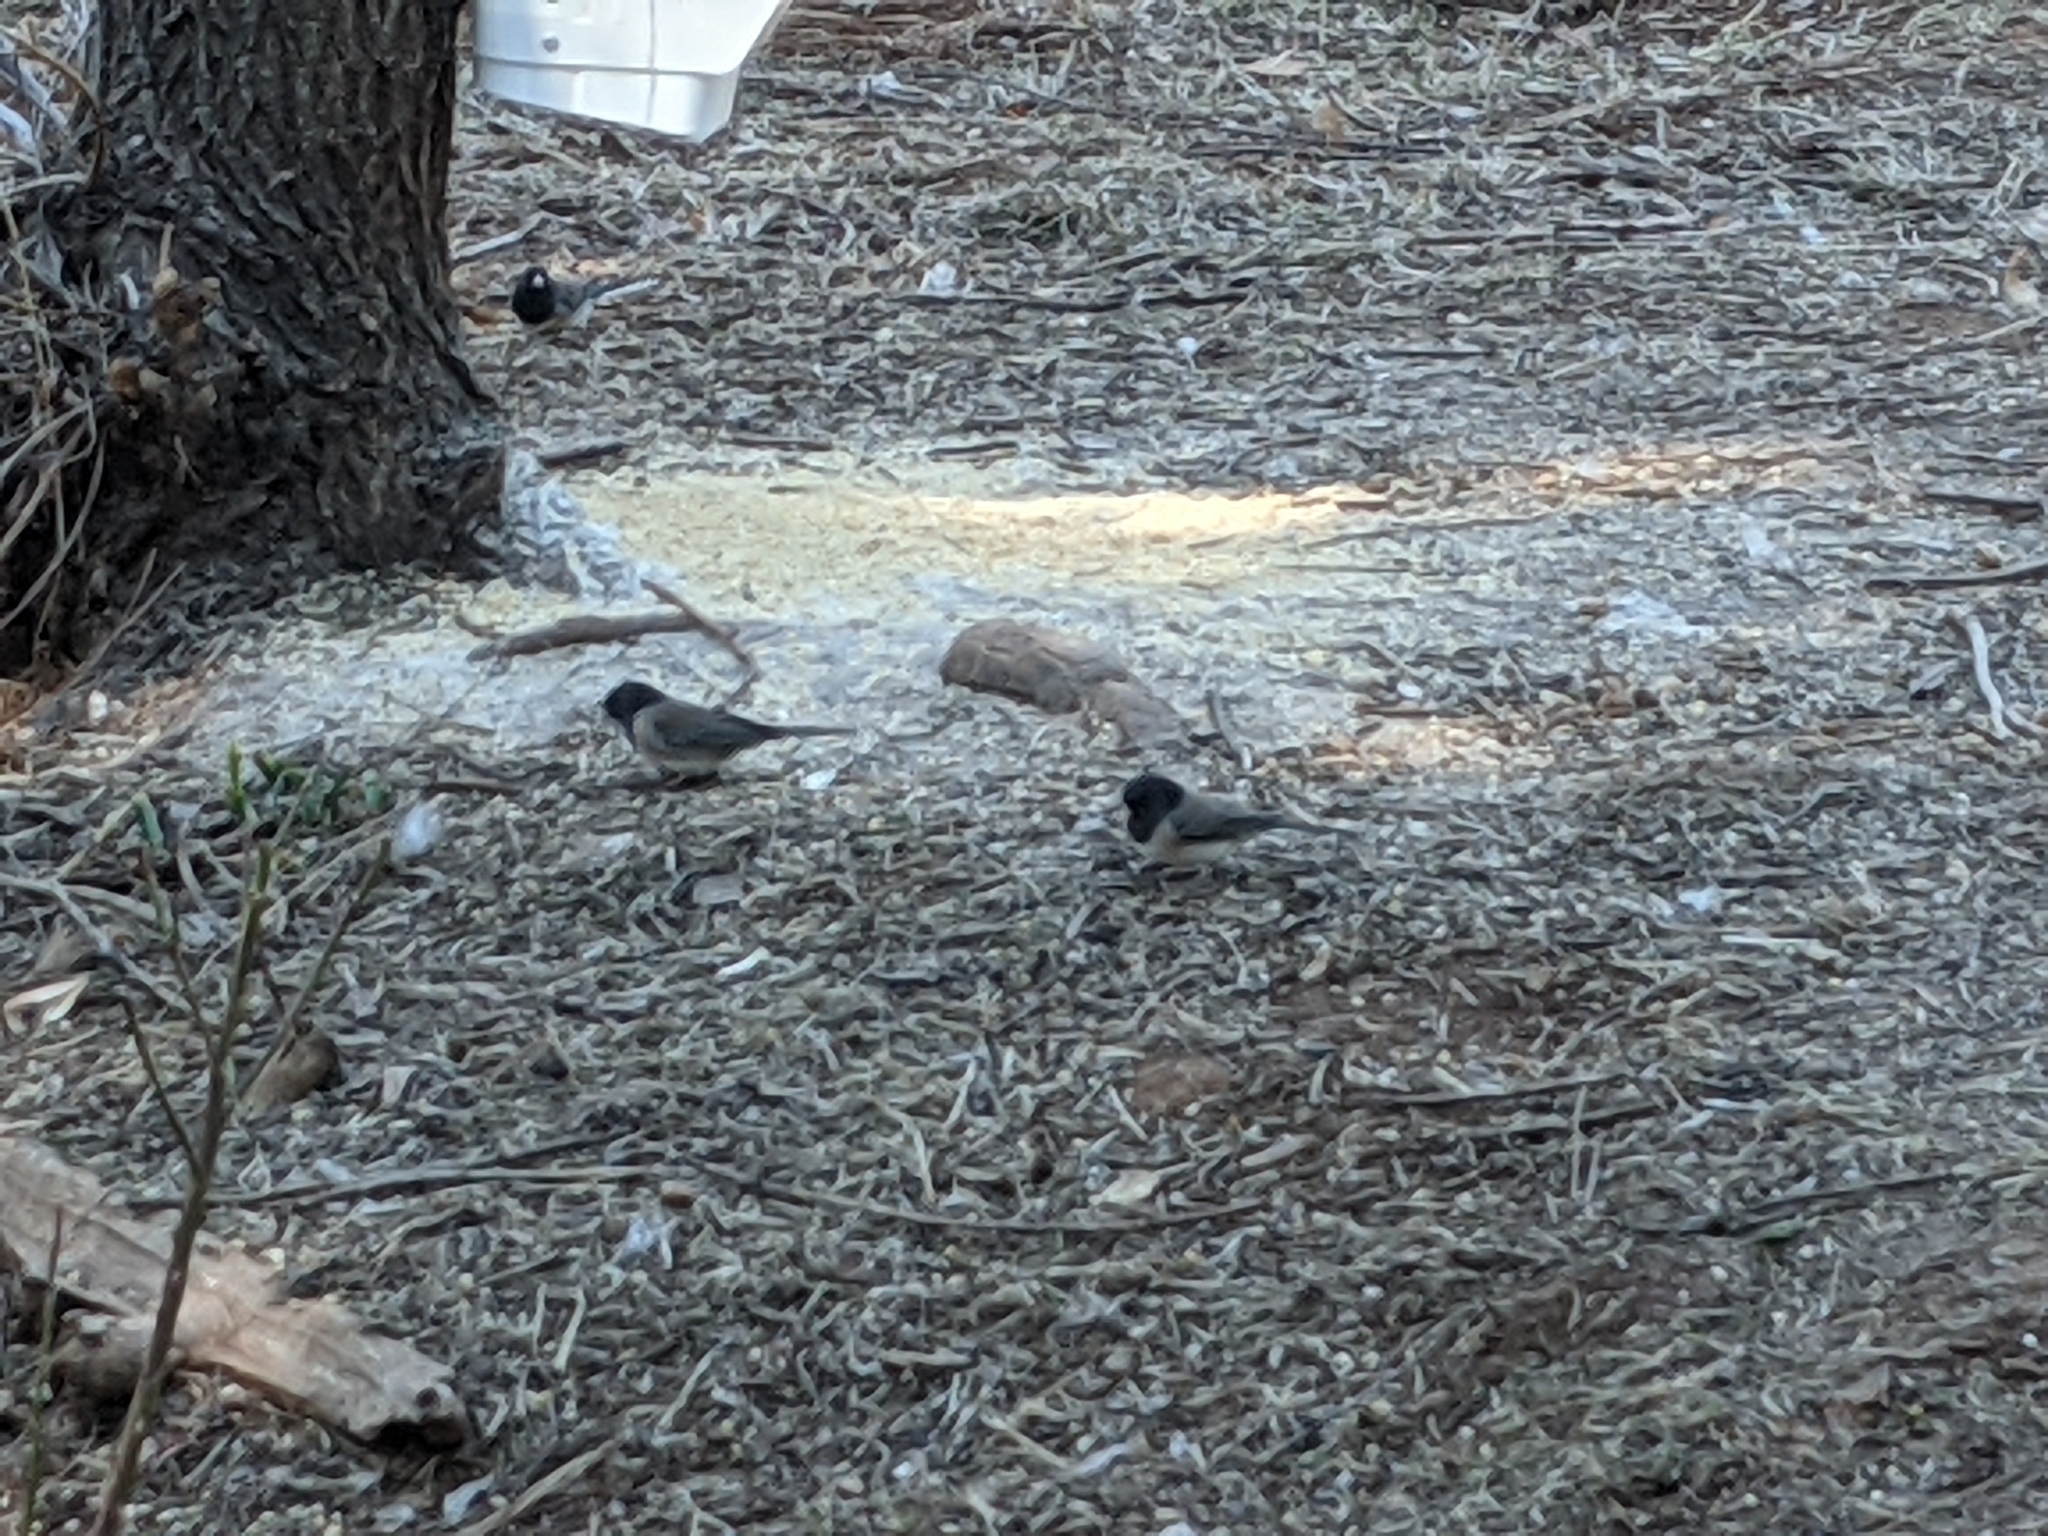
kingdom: Animalia
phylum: Chordata
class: Aves
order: Passeriformes
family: Passerellidae
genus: Junco
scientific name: Junco hyemalis
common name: Dark-eyed junco
